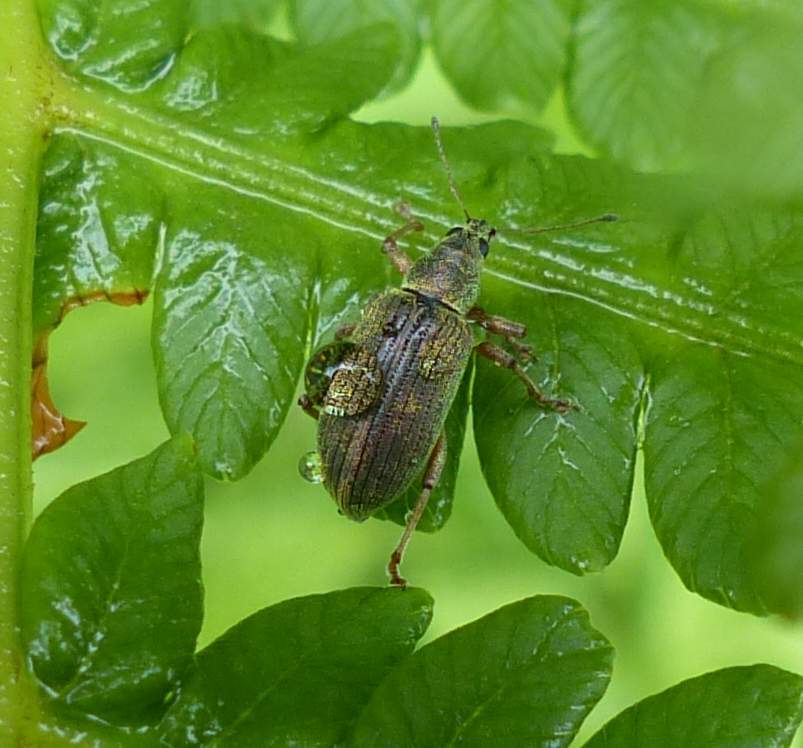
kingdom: Animalia
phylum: Arthropoda
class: Insecta
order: Coleoptera
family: Curculionidae
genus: Polydrusus
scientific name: Polydrusus formosus
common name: Weevil
